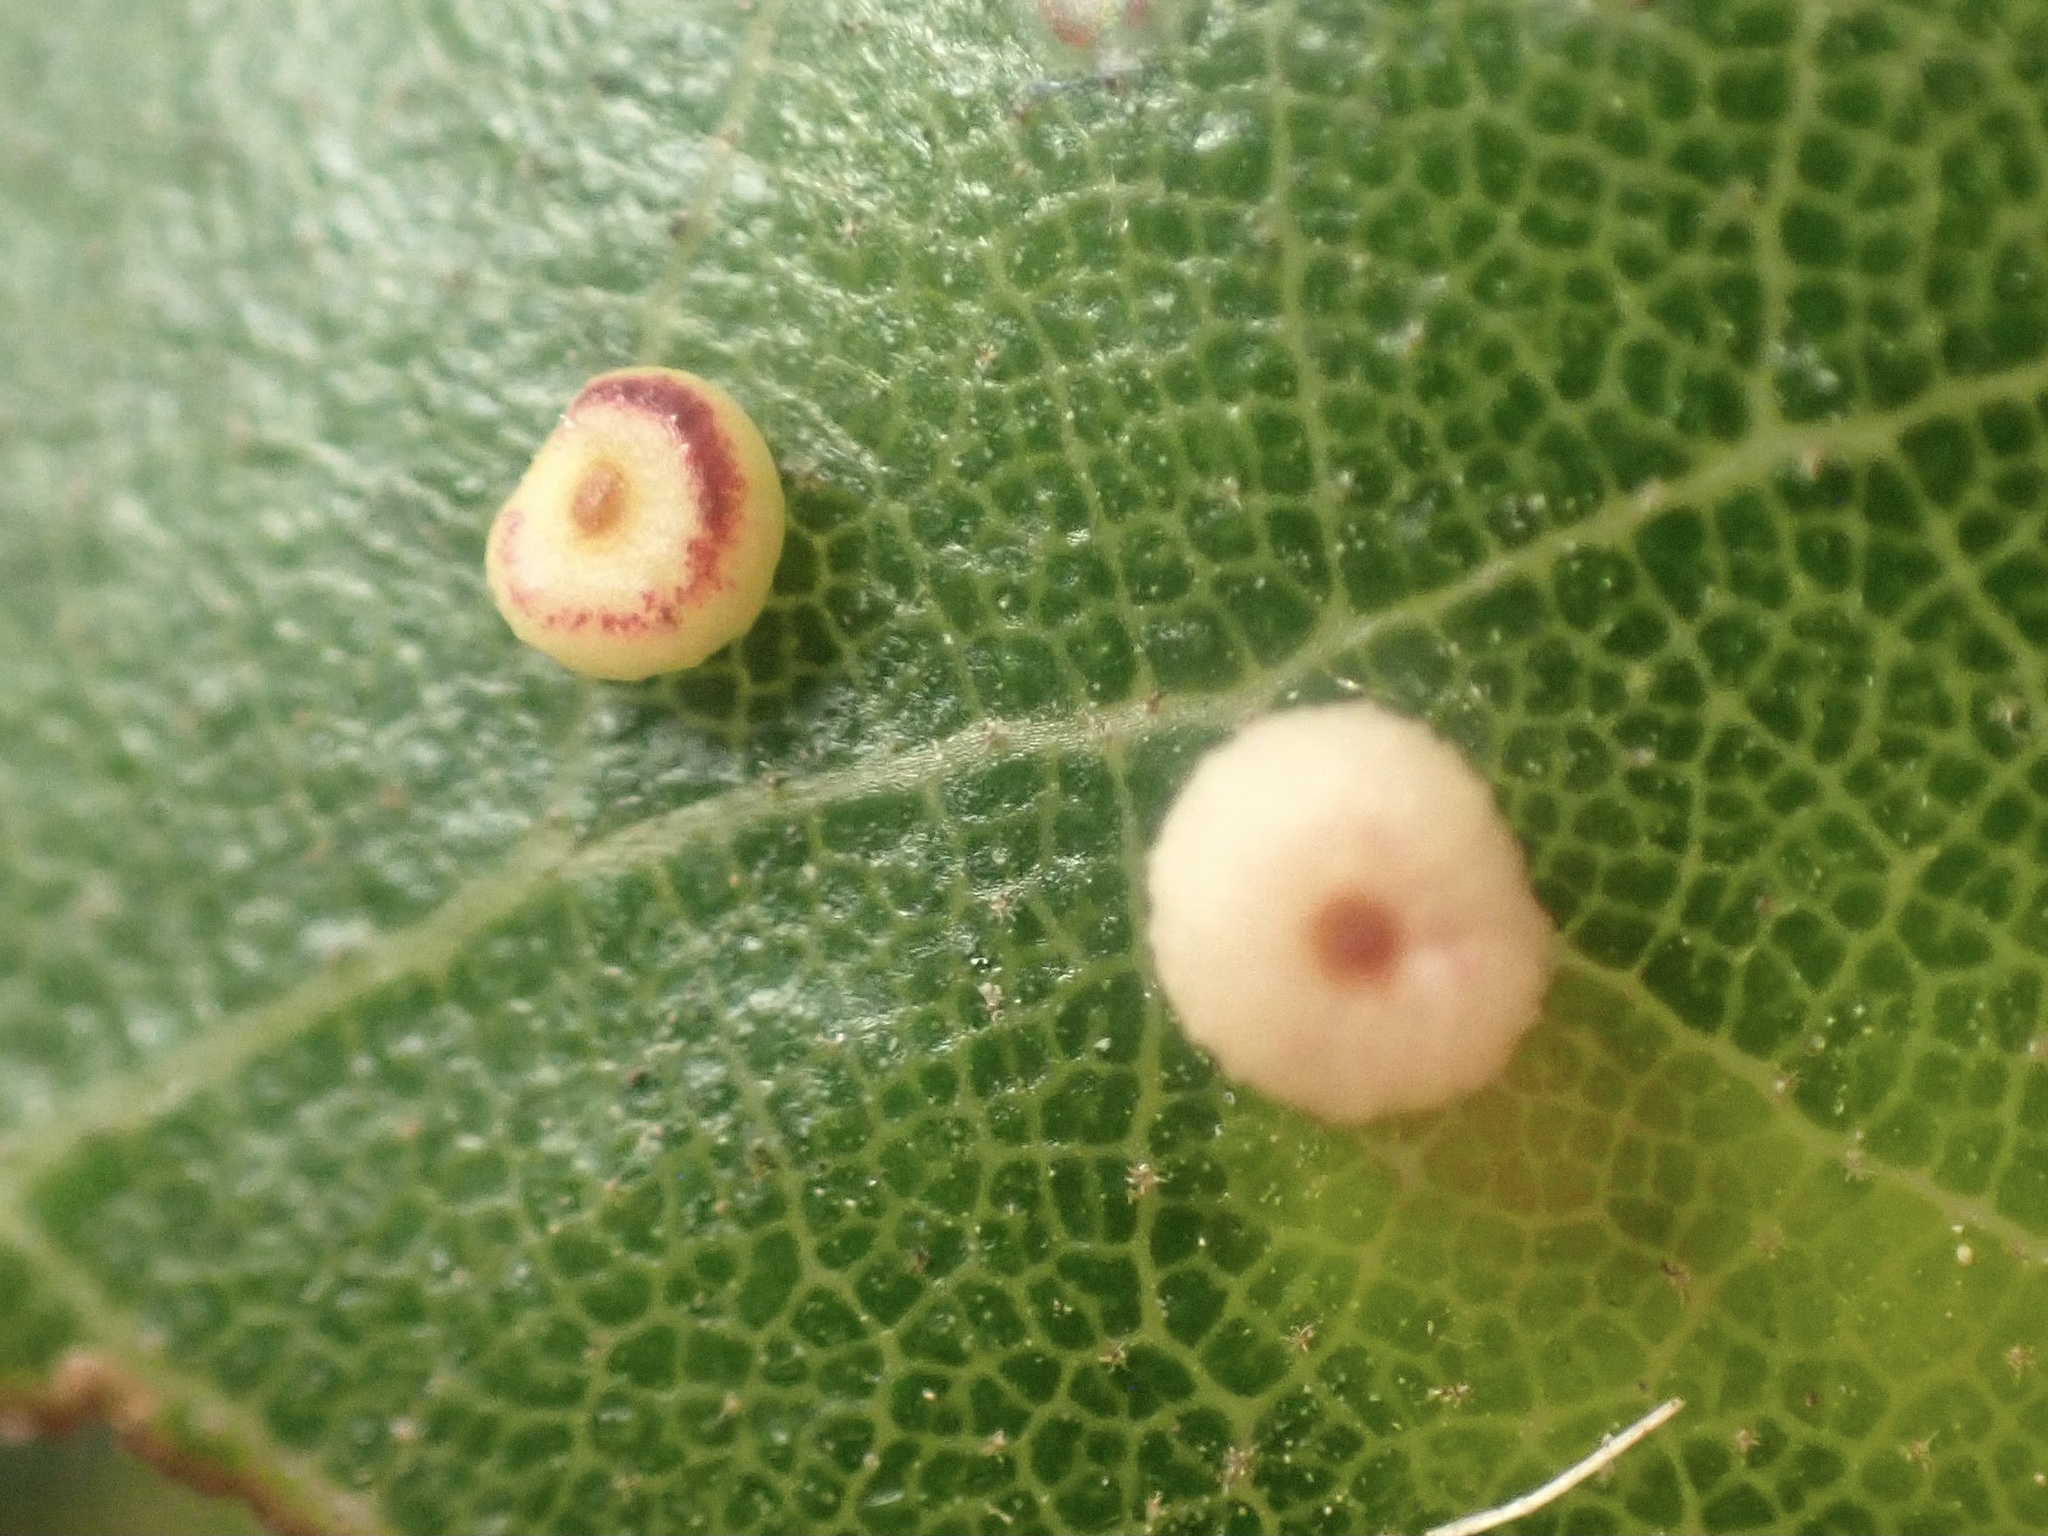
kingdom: Animalia
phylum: Arthropoda
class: Insecta
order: Hymenoptera
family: Cynipidae
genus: Dryocosmus
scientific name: Dryocosmus
